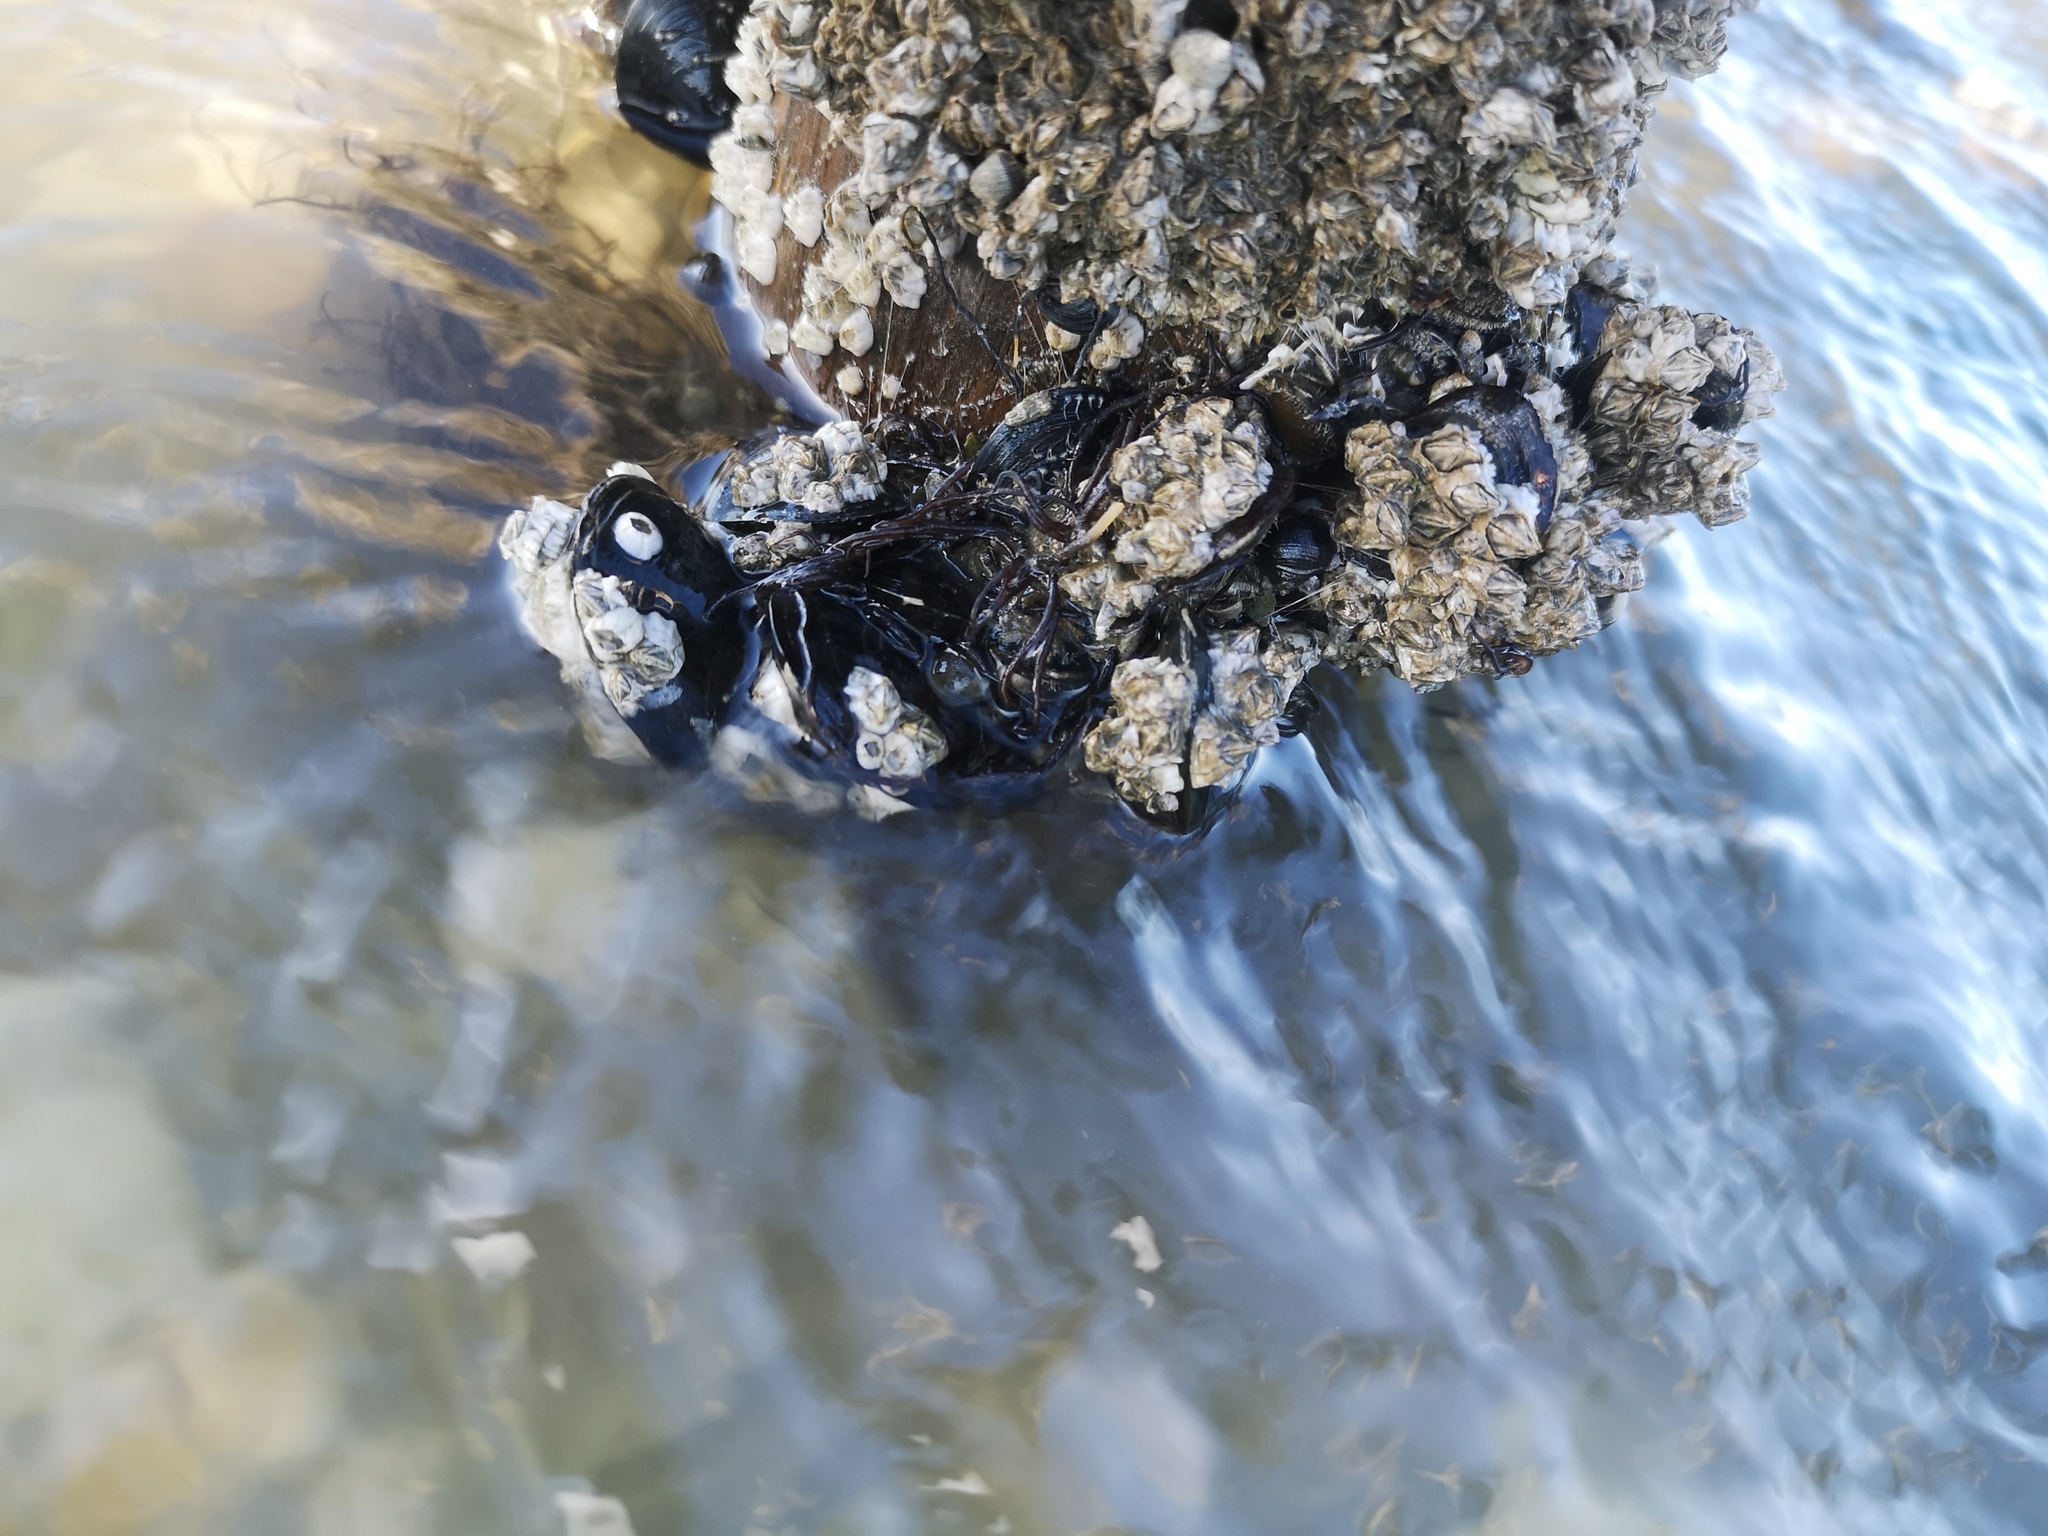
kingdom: Animalia
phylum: Mollusca
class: Bivalvia
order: Mytilida
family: Mytilidae
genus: Mytilus
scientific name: Mytilus edulis
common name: Blue mussel
